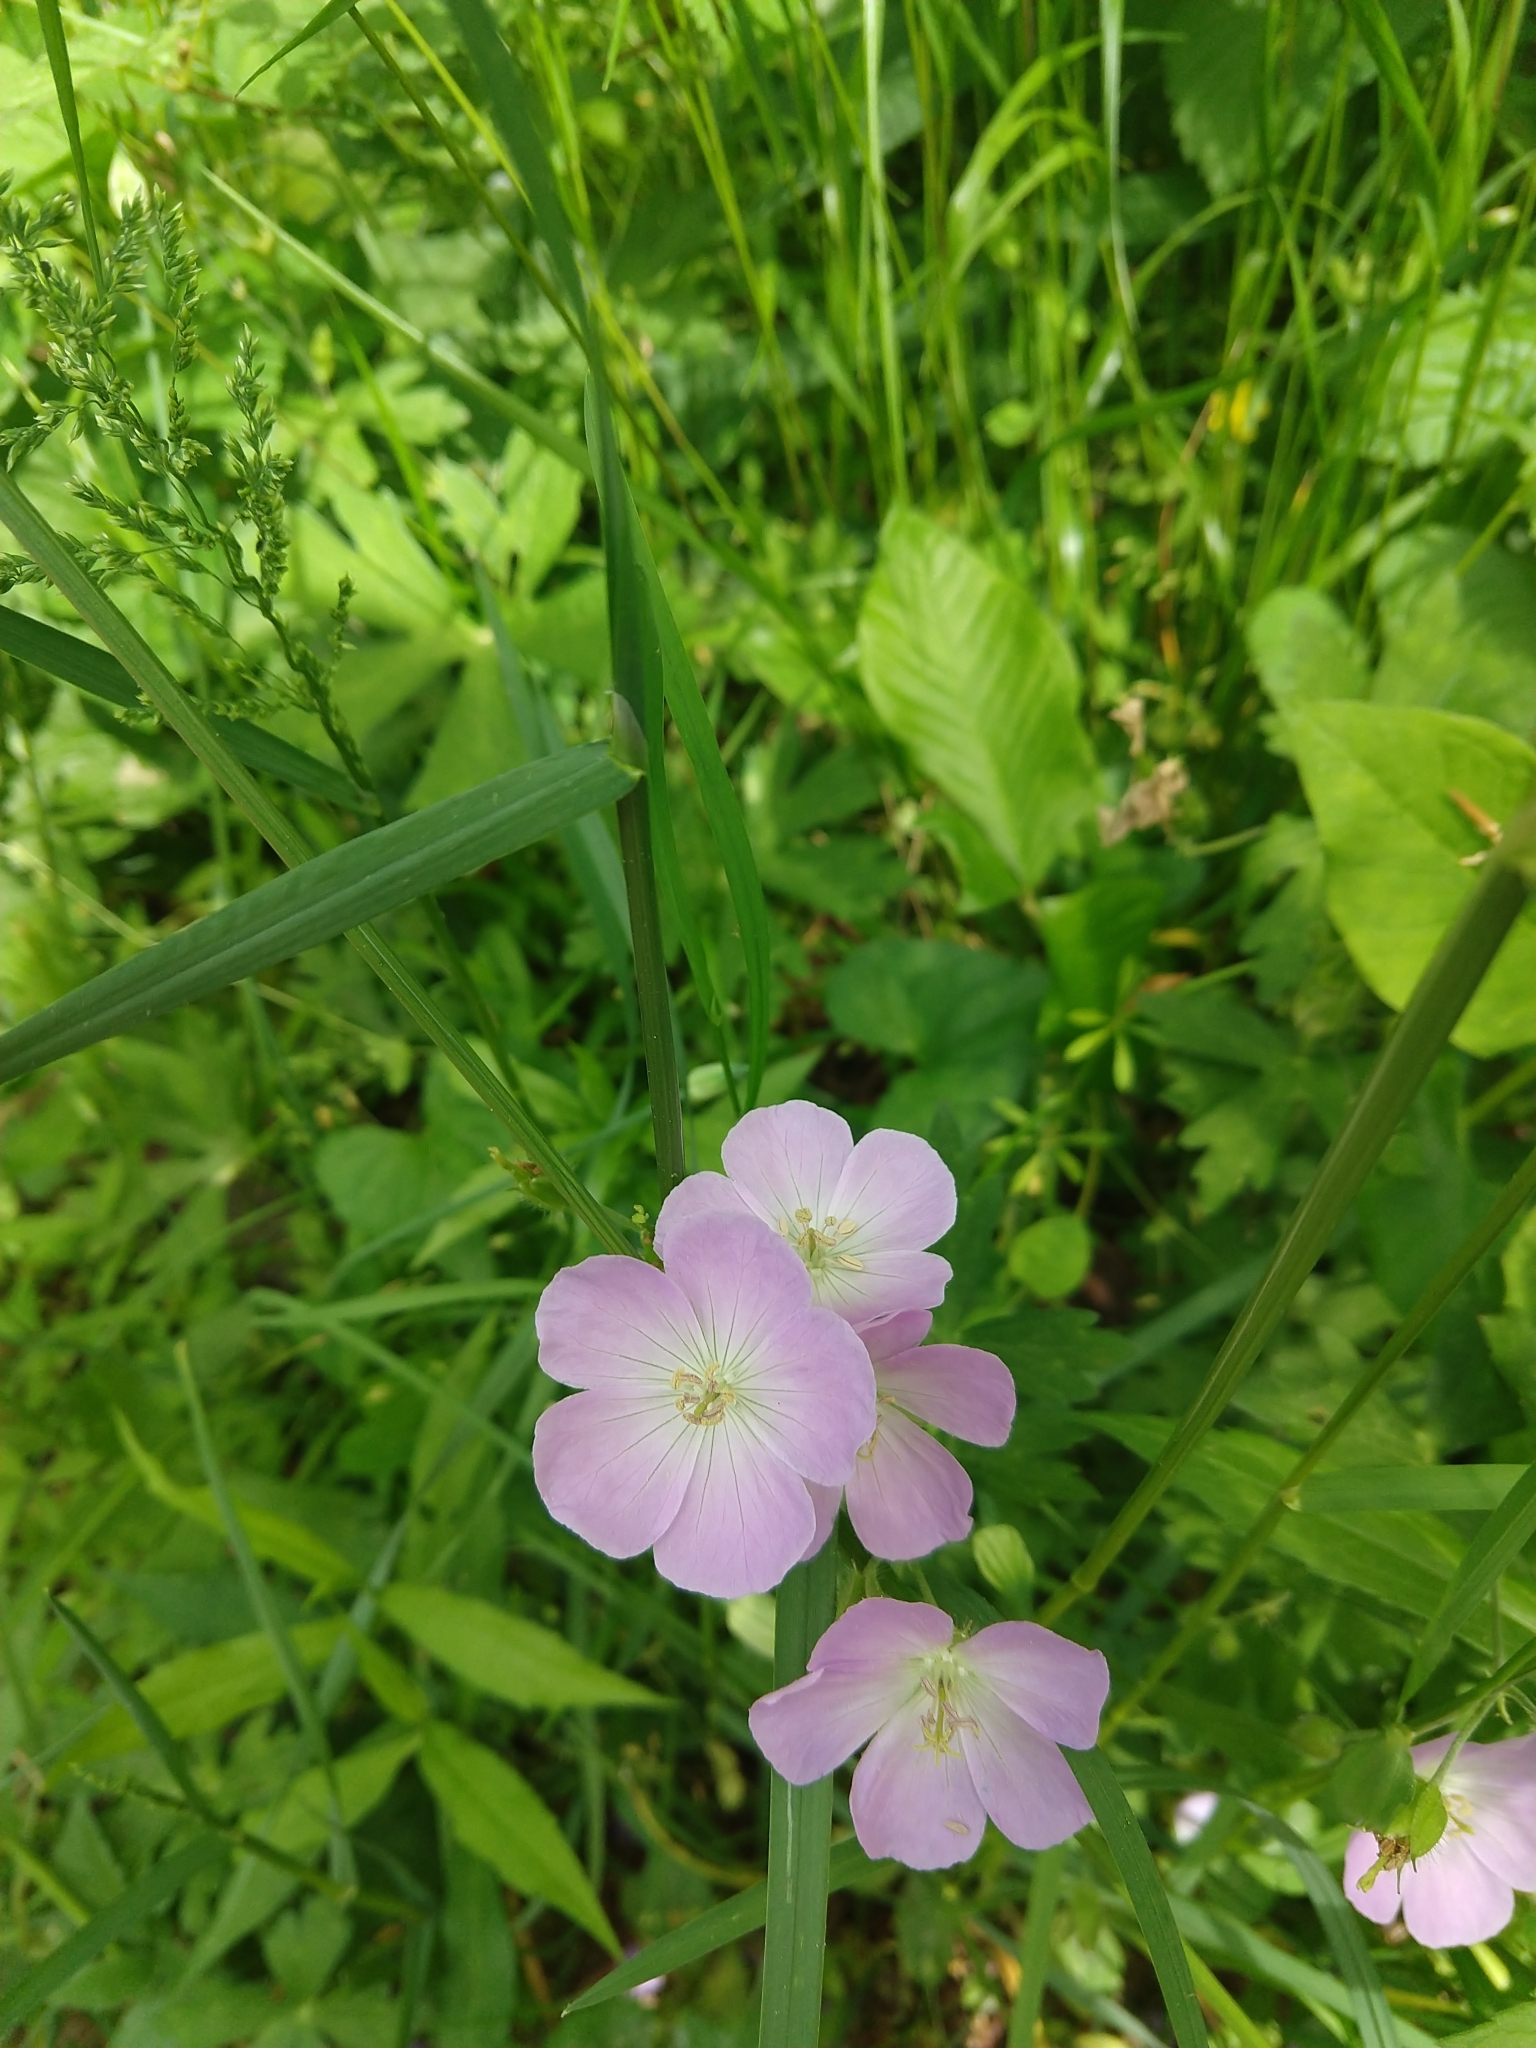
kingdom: Plantae
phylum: Tracheophyta
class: Magnoliopsida
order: Geraniales
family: Geraniaceae
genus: Geranium
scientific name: Geranium maculatum
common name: Spotted geranium
